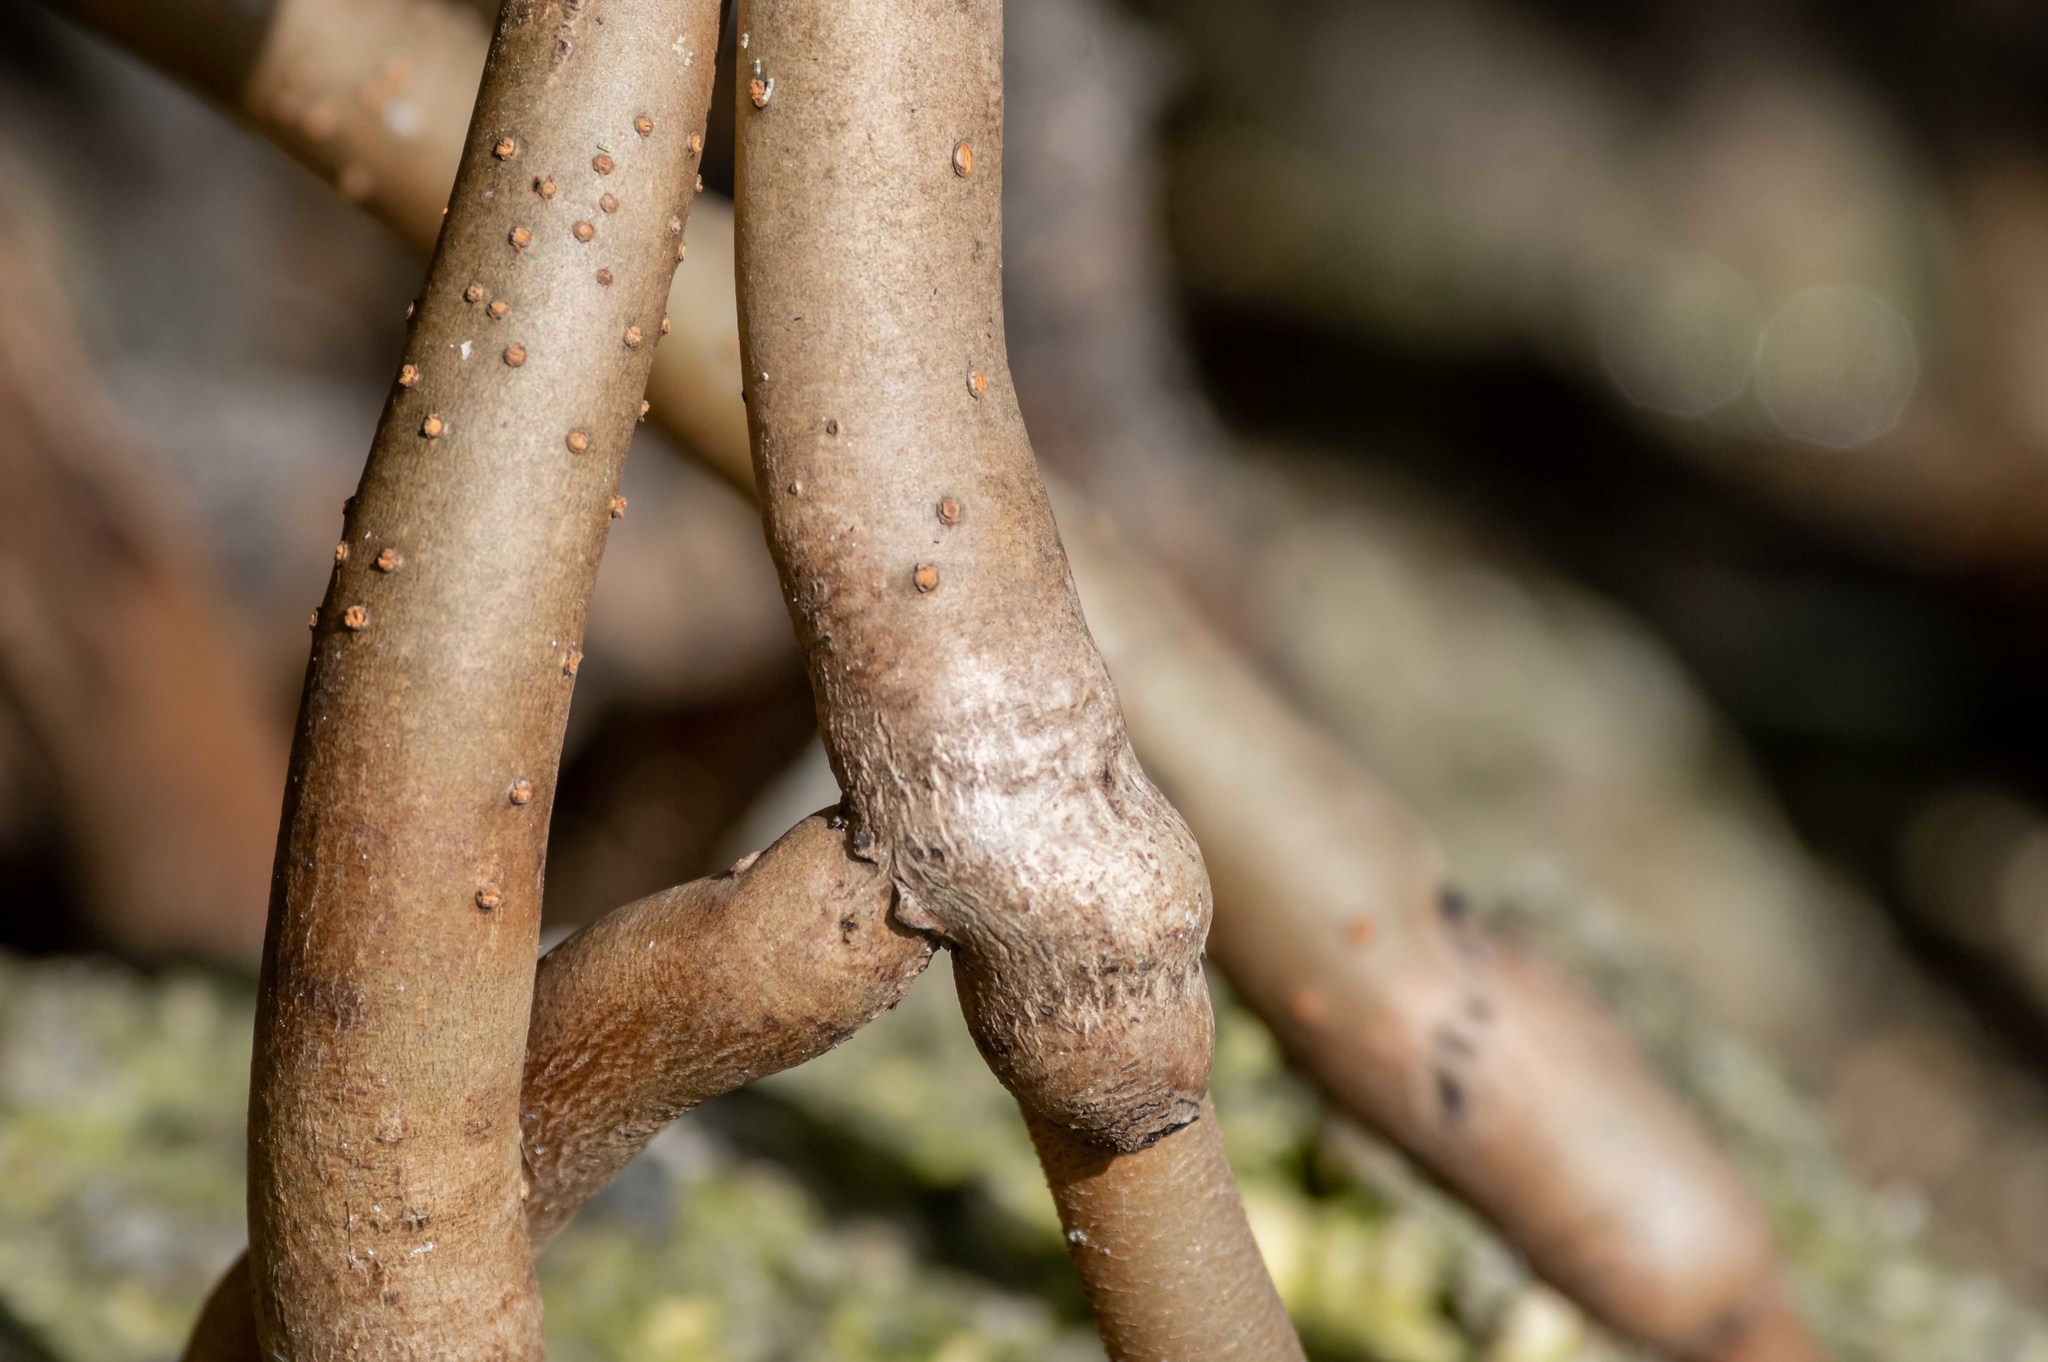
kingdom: Plantae
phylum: Tracheophyta
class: Magnoliopsida
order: Malpighiales
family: Rhizophoraceae
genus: Rhizophora
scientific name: Rhizophora mangle
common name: Red mangrove
